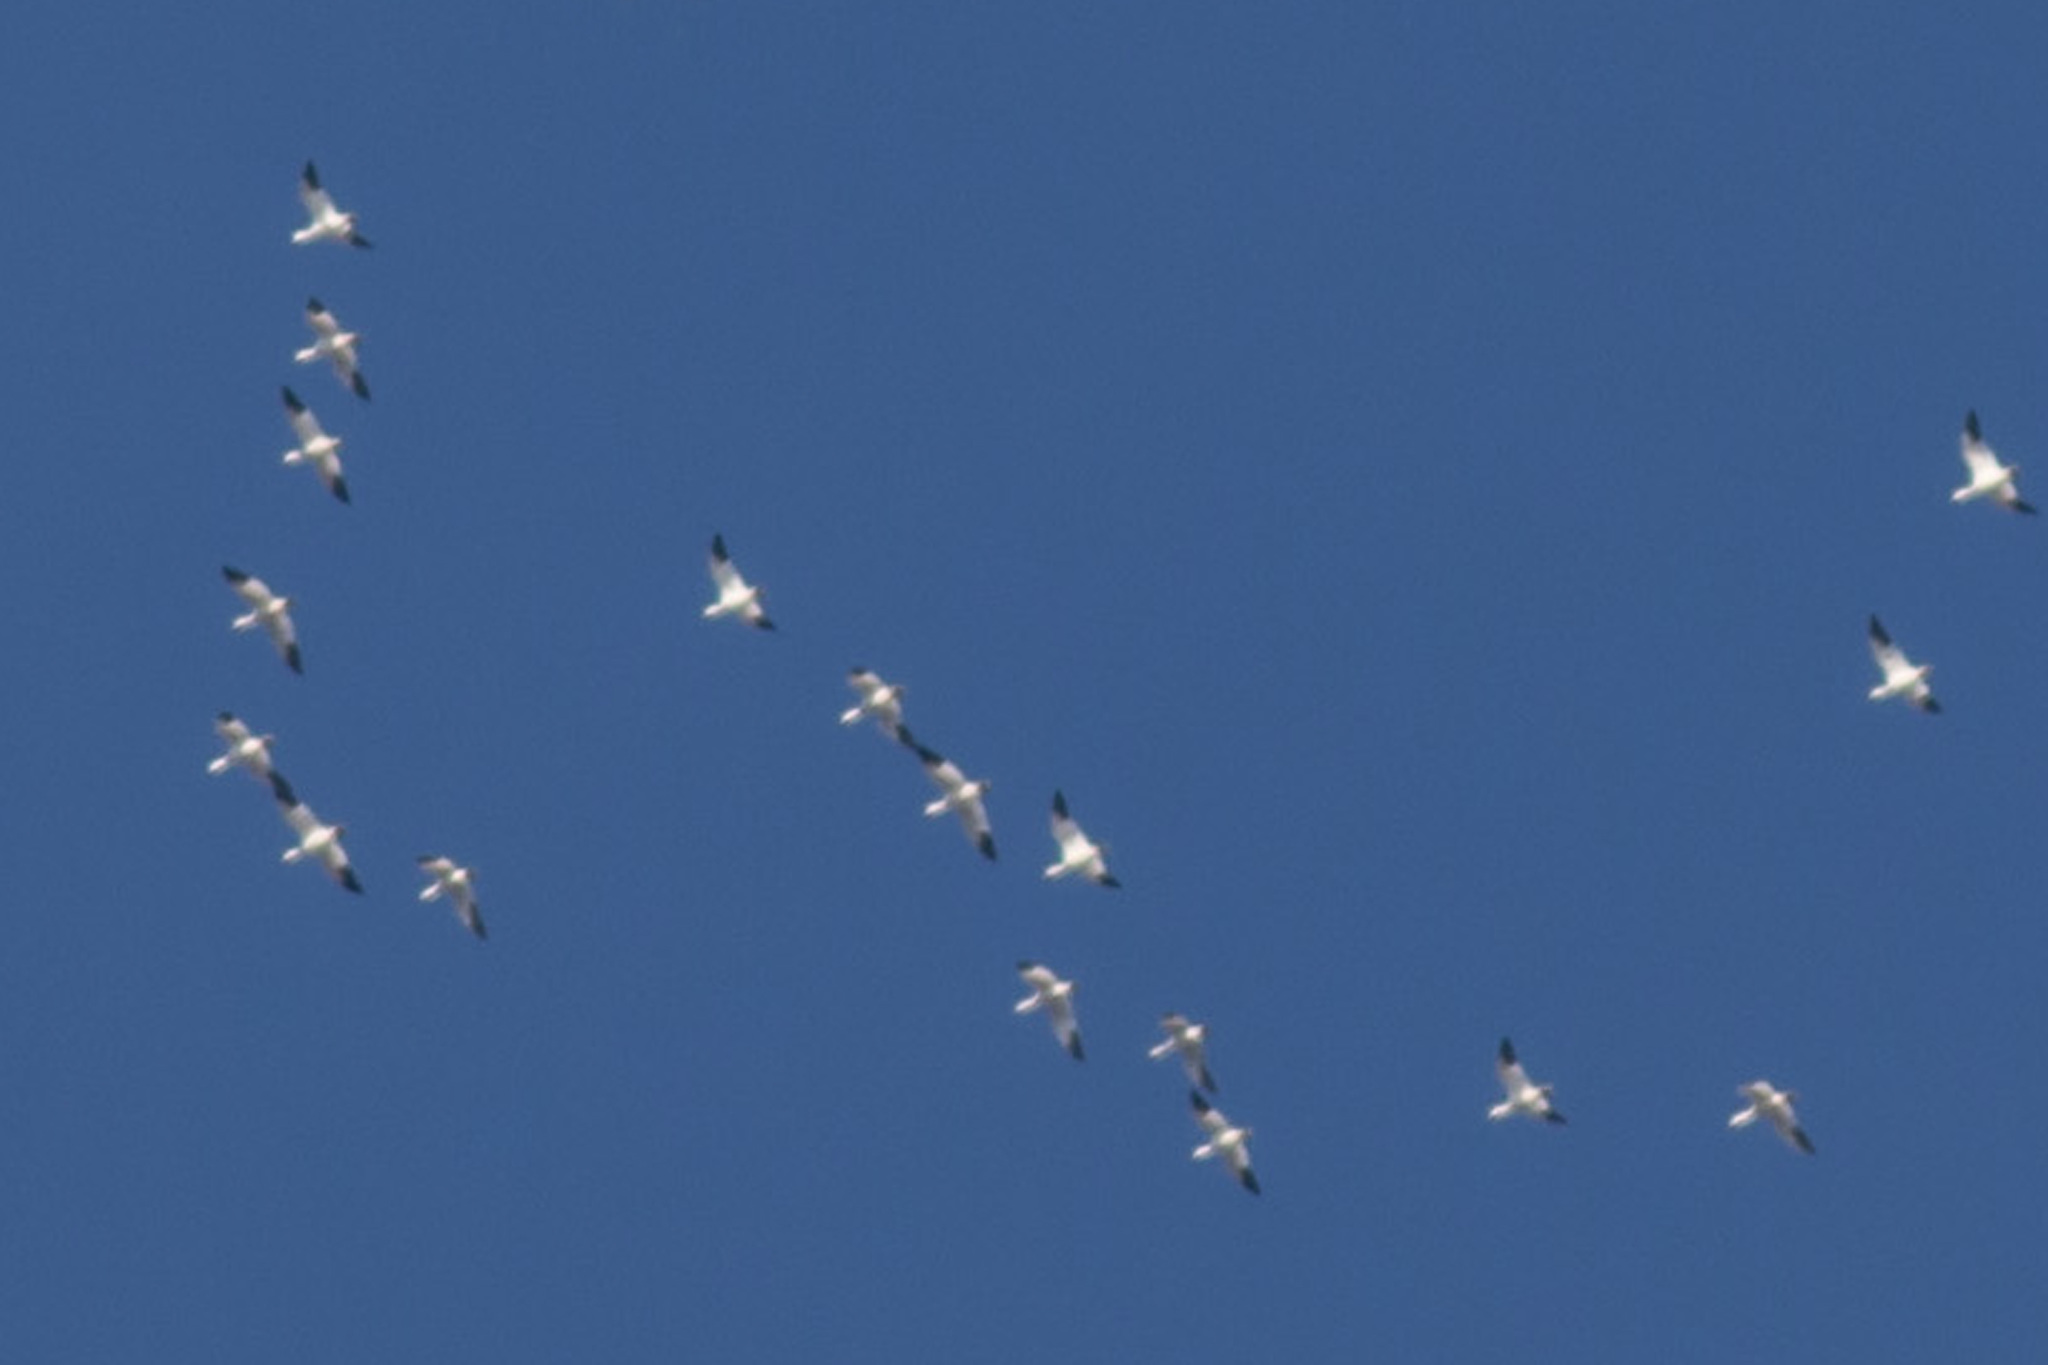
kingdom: Animalia
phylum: Chordata
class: Aves
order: Anseriformes
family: Anatidae
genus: Anser
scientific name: Anser caerulescens
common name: Snow goose
